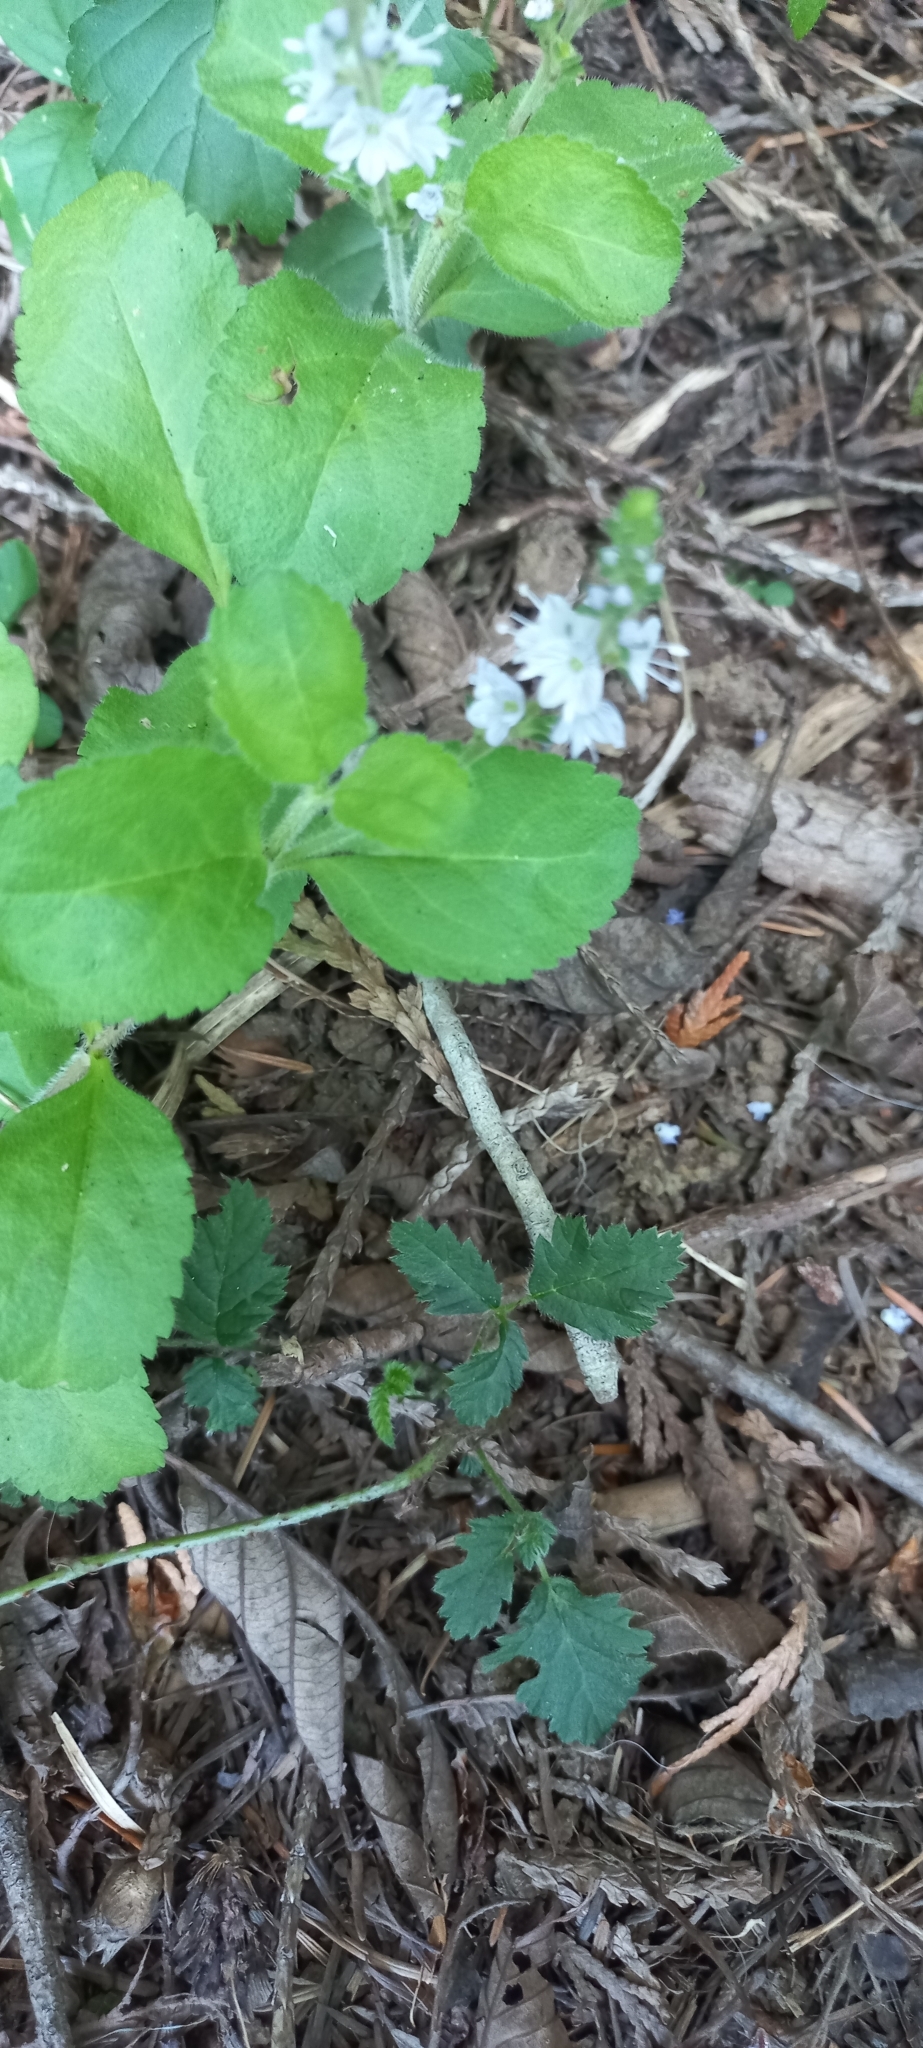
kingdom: Plantae
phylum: Tracheophyta
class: Magnoliopsida
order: Lamiales
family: Plantaginaceae
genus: Veronica
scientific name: Veronica officinalis
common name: Common speedwell
